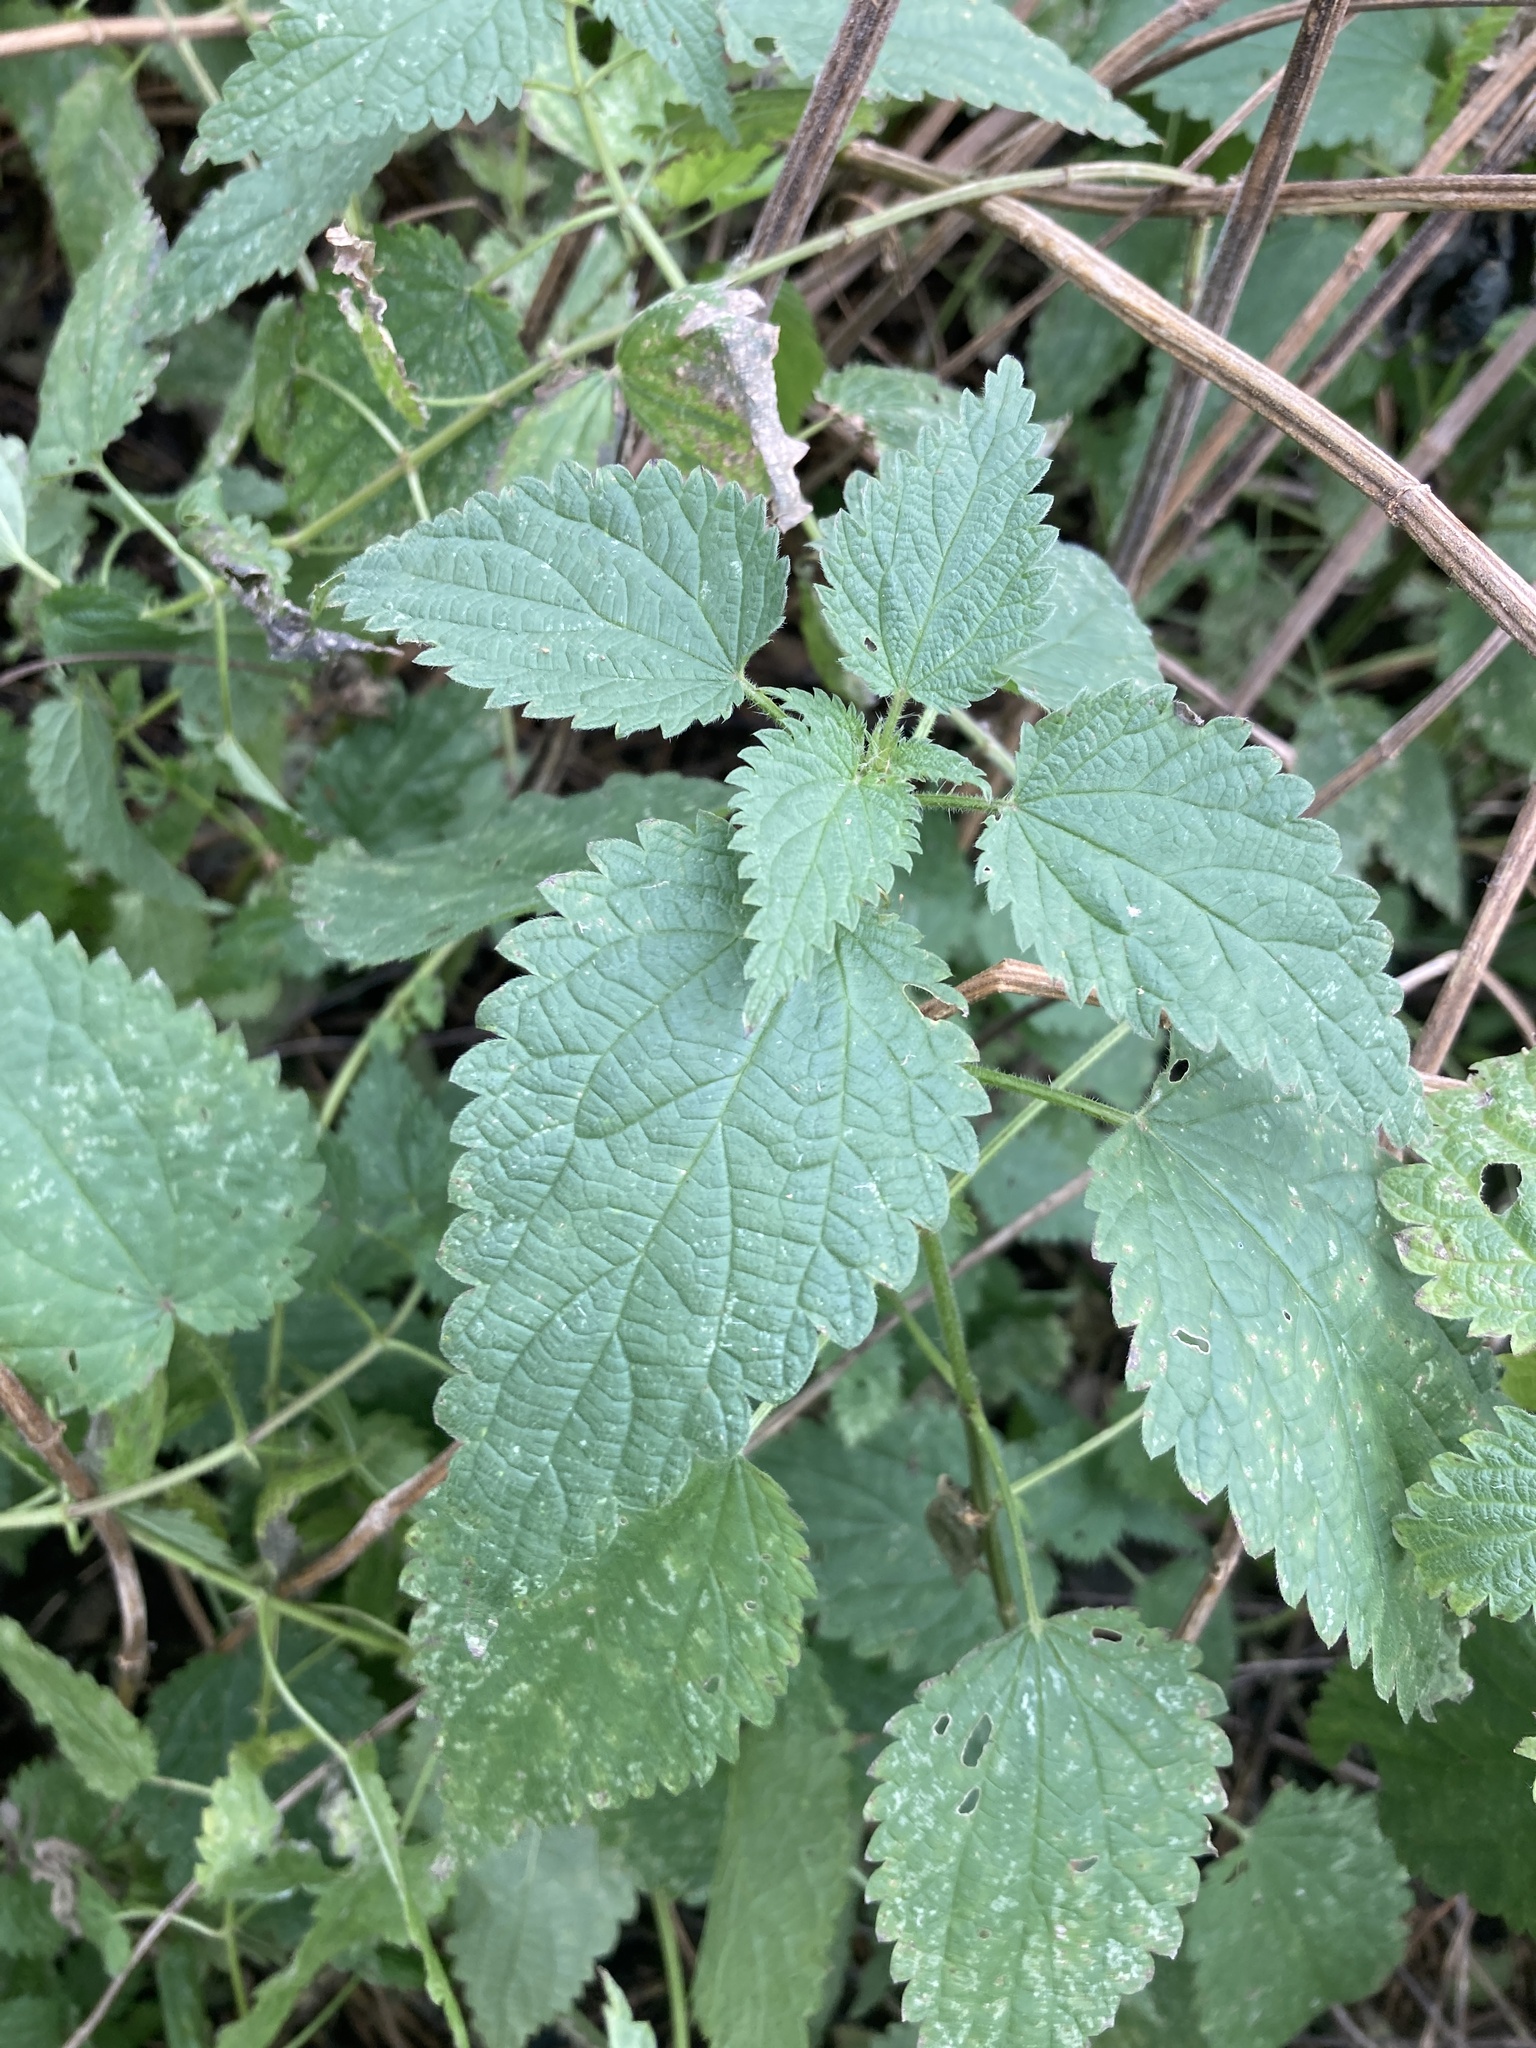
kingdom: Plantae
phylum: Tracheophyta
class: Magnoliopsida
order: Rosales
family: Urticaceae
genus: Urtica
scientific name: Urtica dioica
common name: Common nettle
